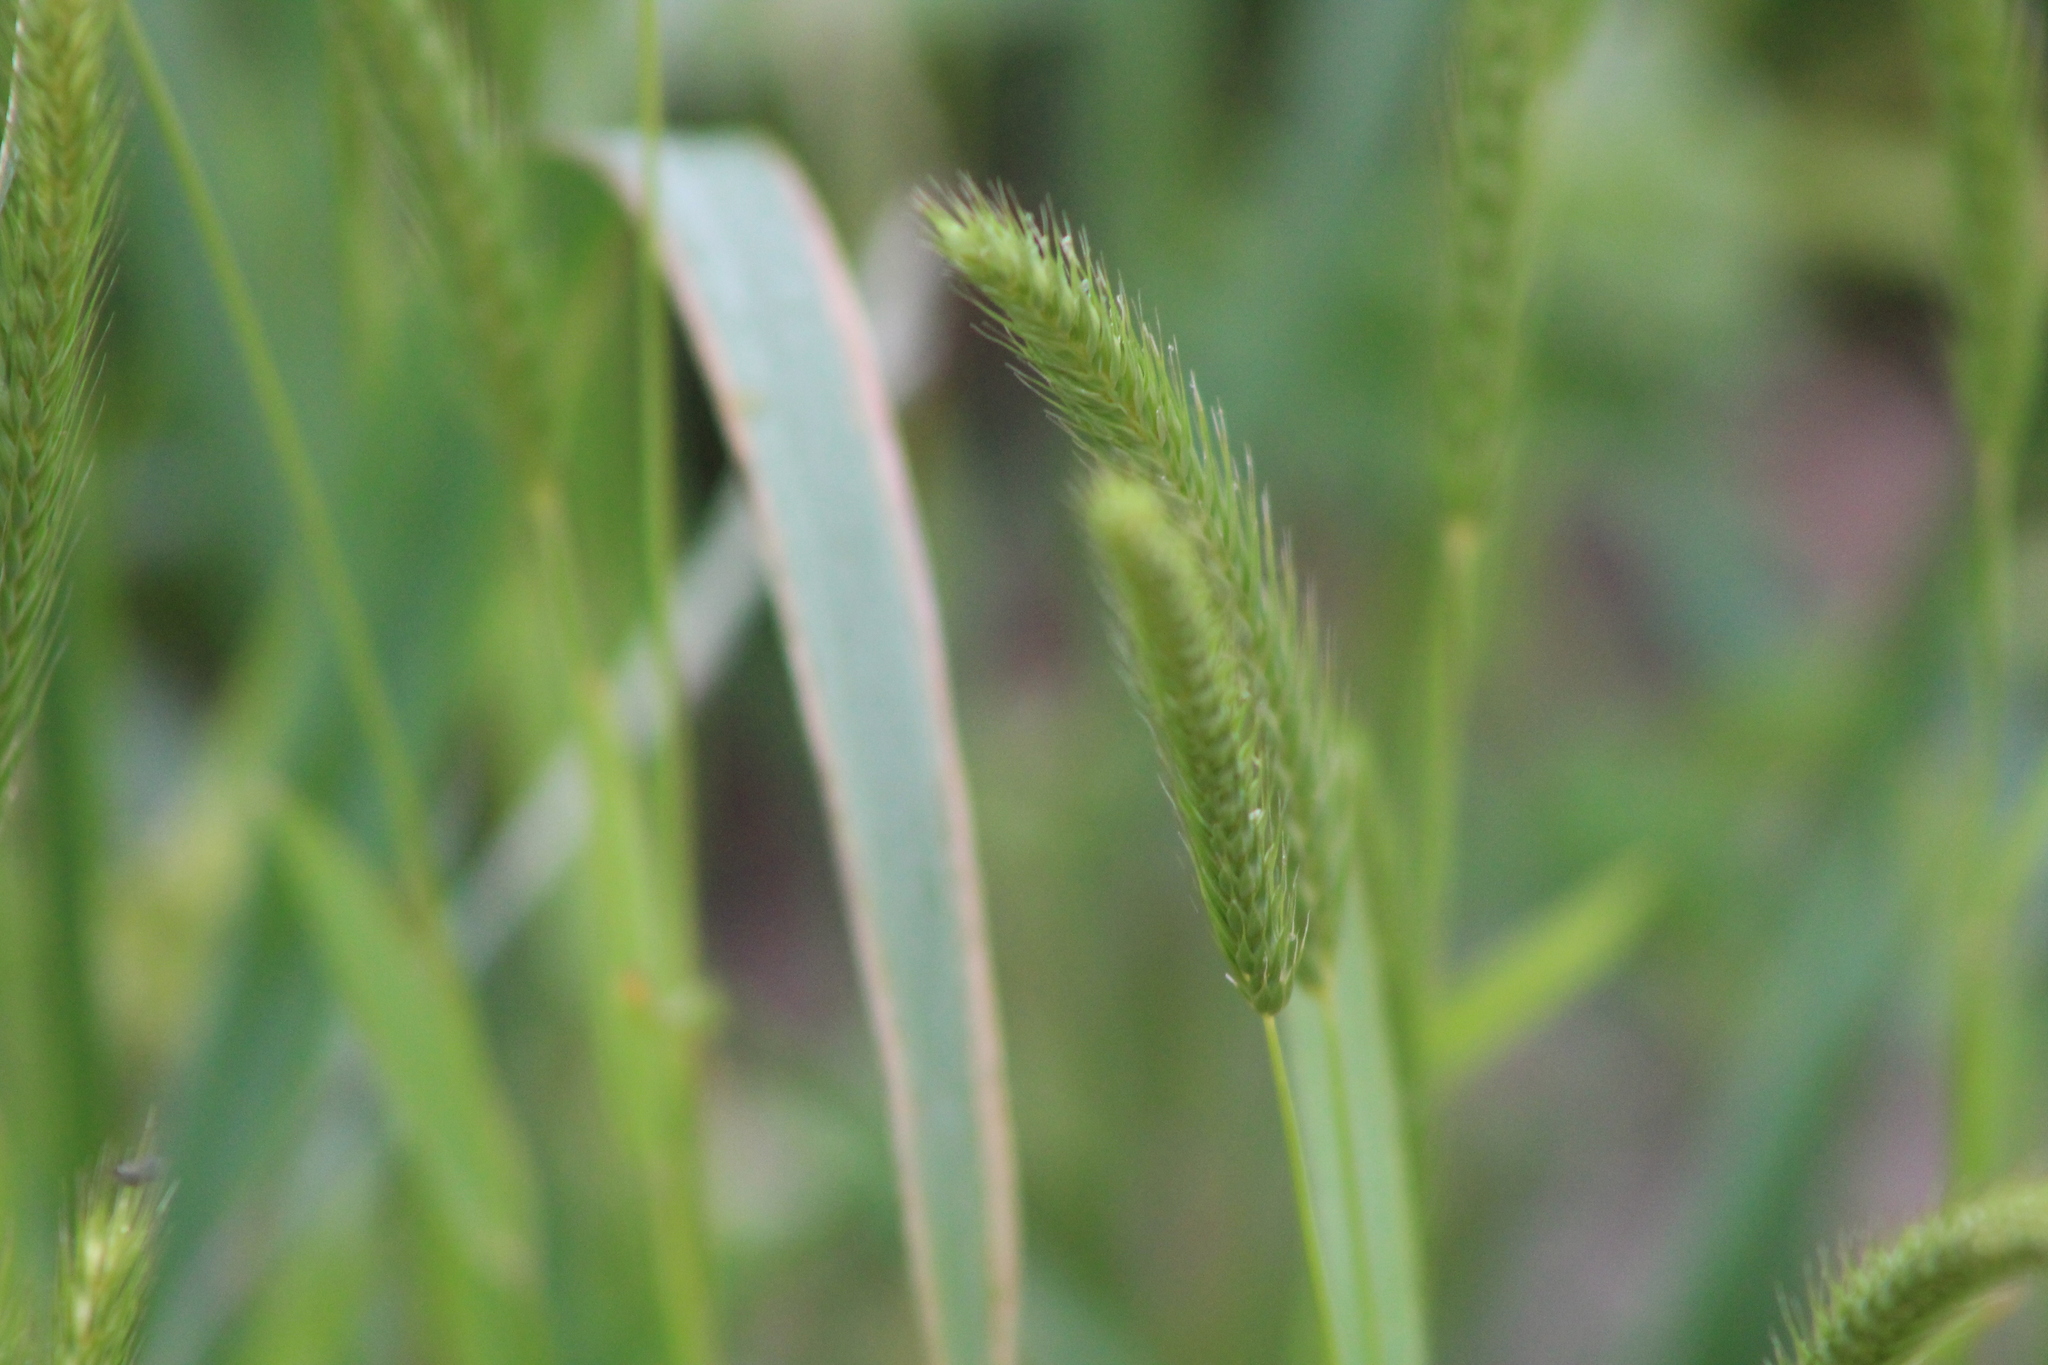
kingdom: Plantae
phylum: Tracheophyta
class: Liliopsida
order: Poales
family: Poaceae
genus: Hordeum
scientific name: Hordeum pusillum
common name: Little barley
